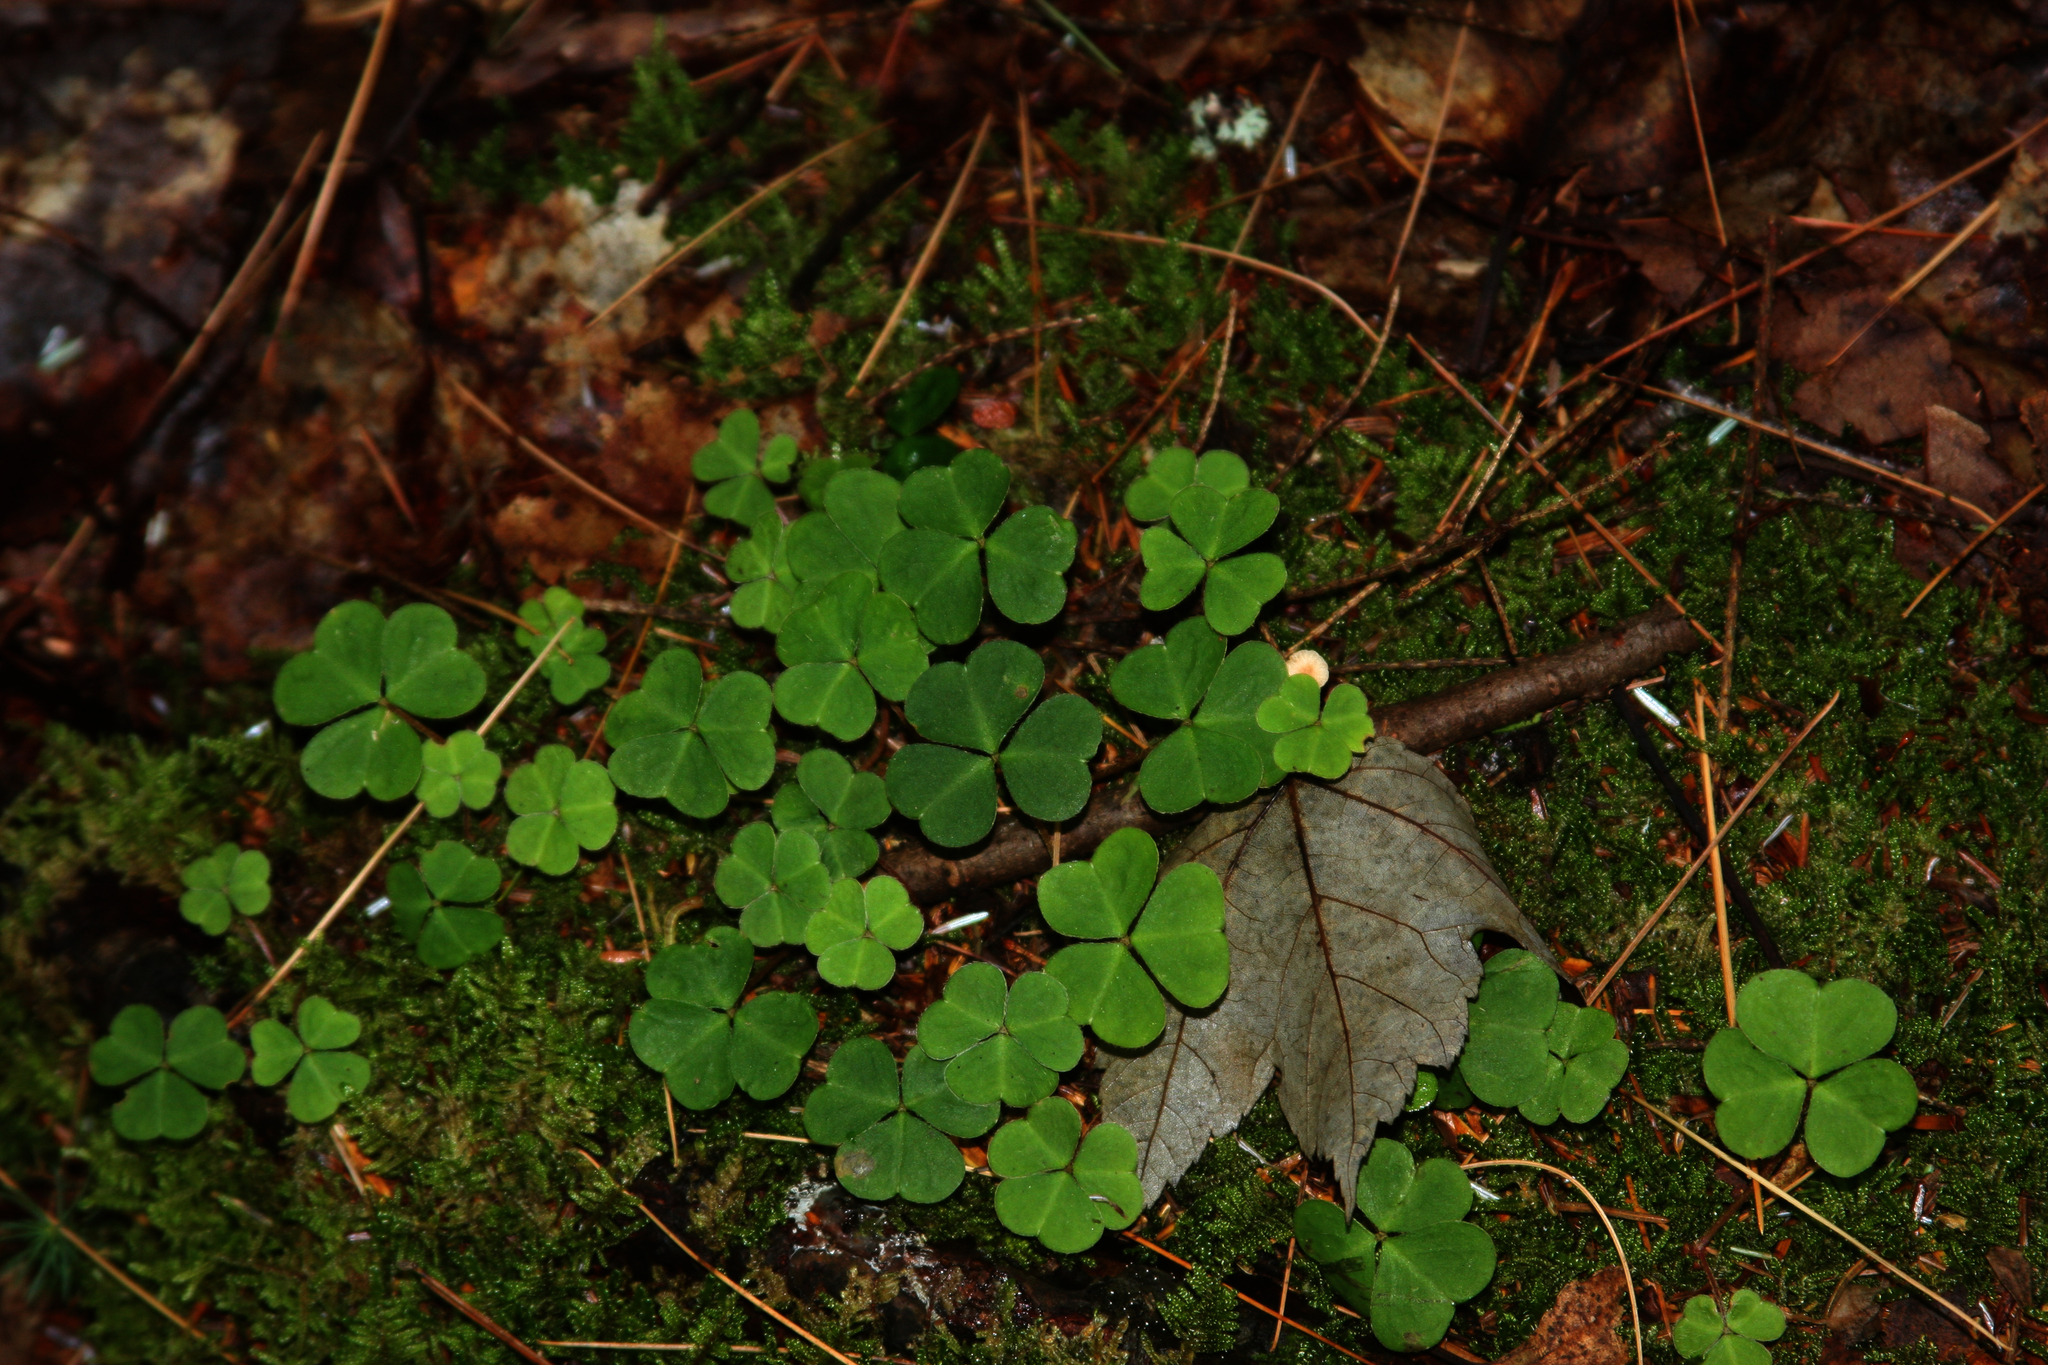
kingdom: Plantae
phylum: Tracheophyta
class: Magnoliopsida
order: Oxalidales
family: Oxalidaceae
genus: Oxalis
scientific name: Oxalis montana
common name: American wood-sorrel
